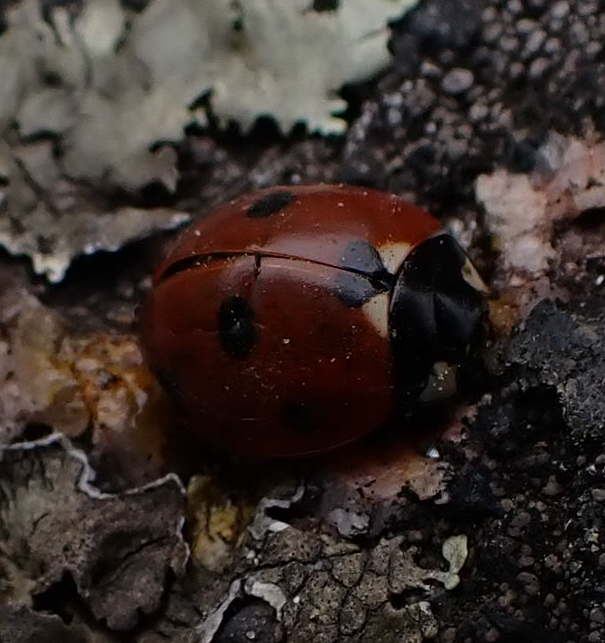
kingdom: Animalia
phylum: Arthropoda
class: Insecta
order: Coleoptera
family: Coccinellidae
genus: Coccinella
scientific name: Coccinella septempunctata
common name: Sevenspotted lady beetle
